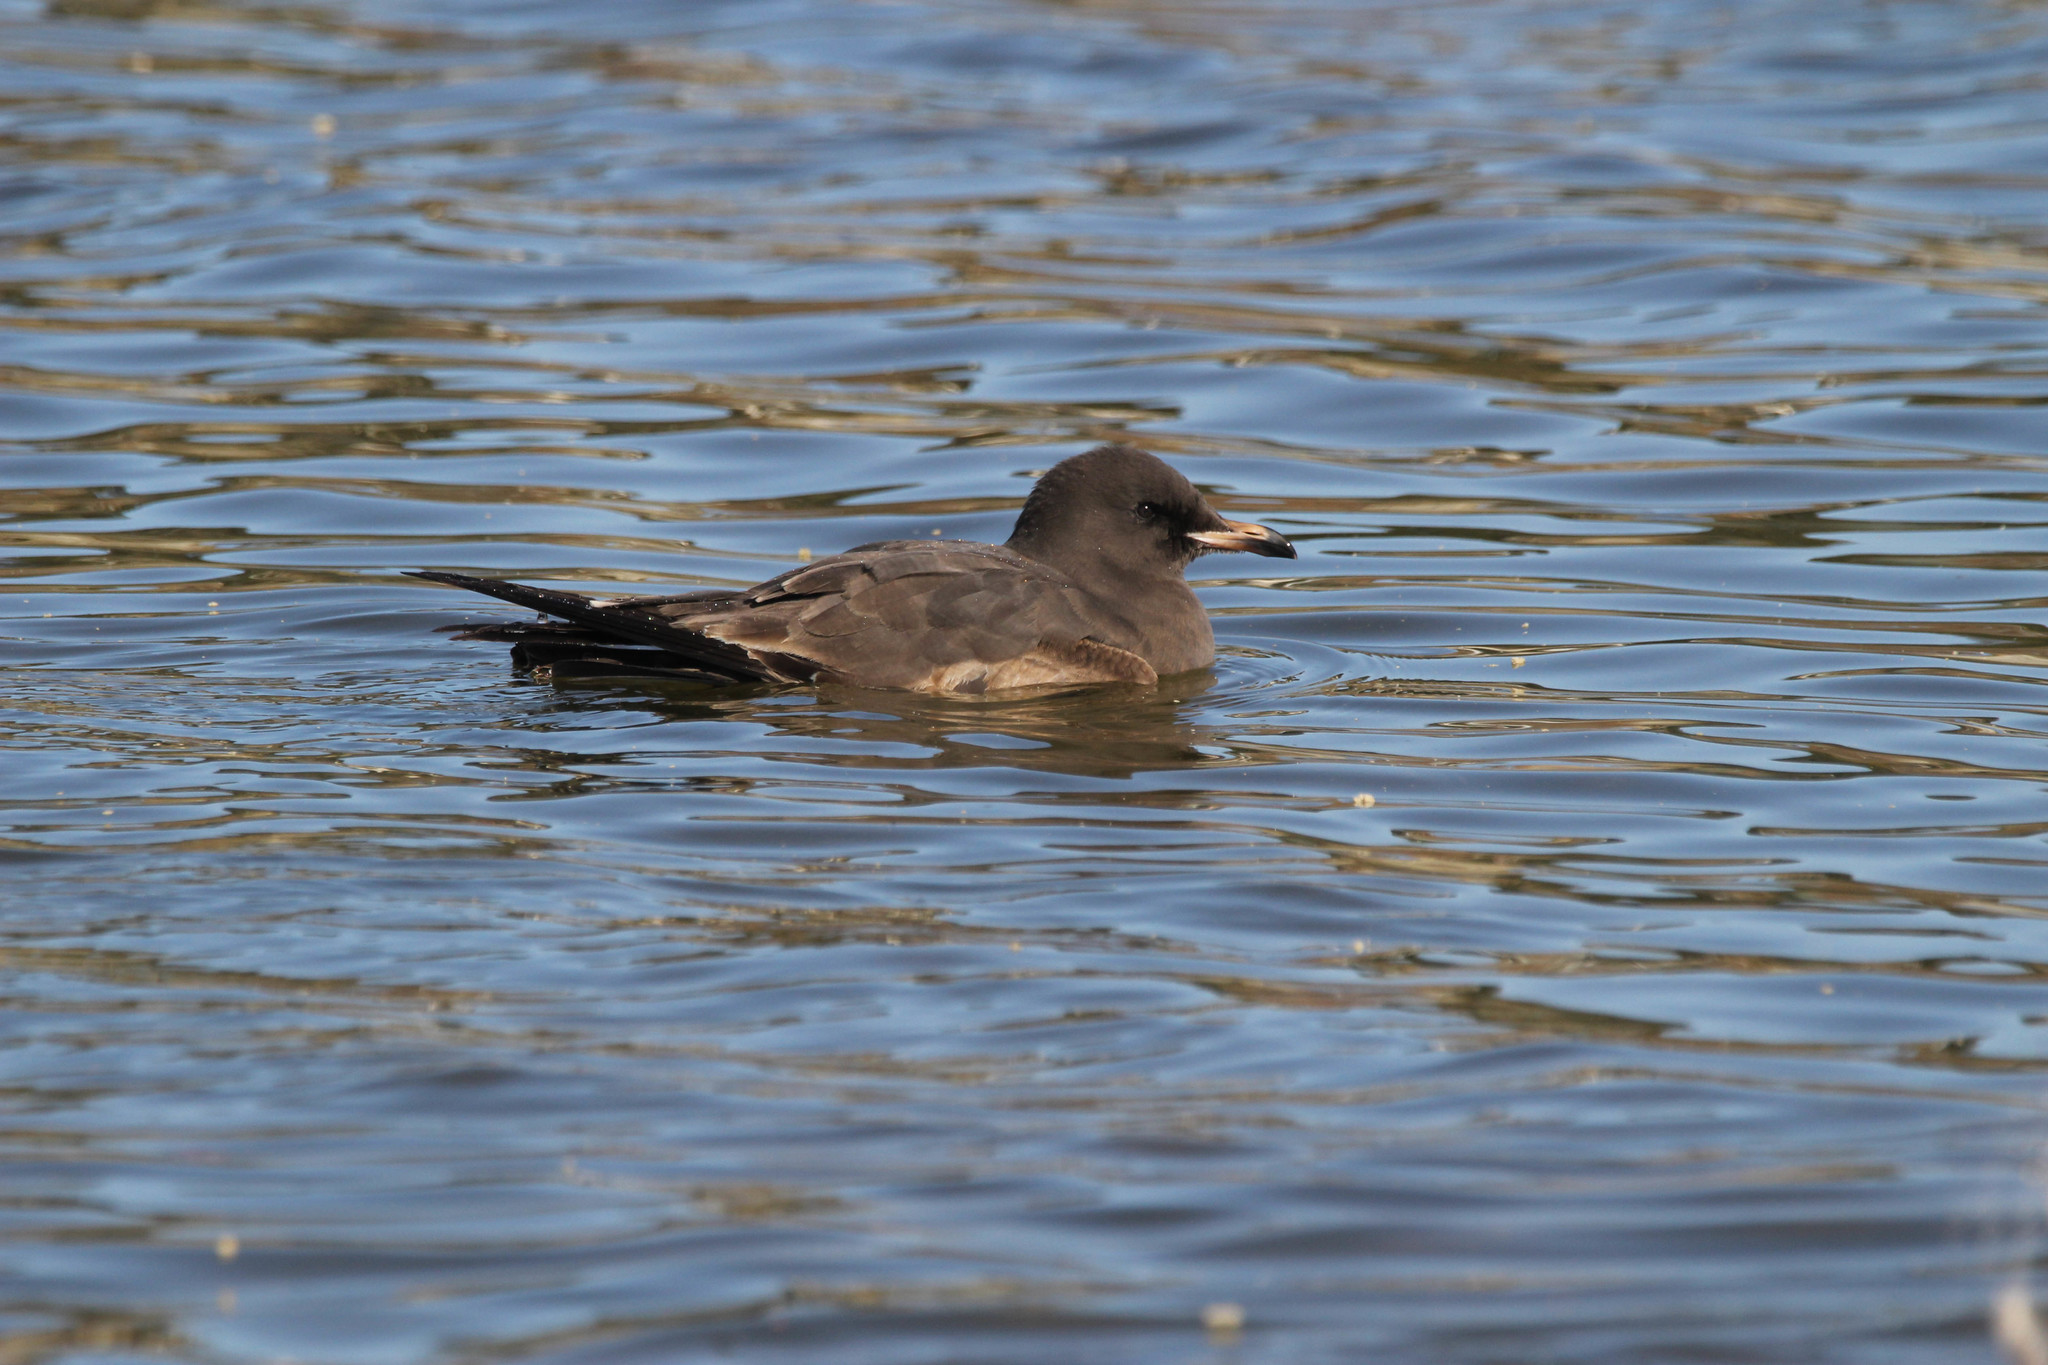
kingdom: Animalia
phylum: Chordata
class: Aves
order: Charadriiformes
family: Laridae
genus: Larus
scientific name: Larus heermanni
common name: Heermann's gull
